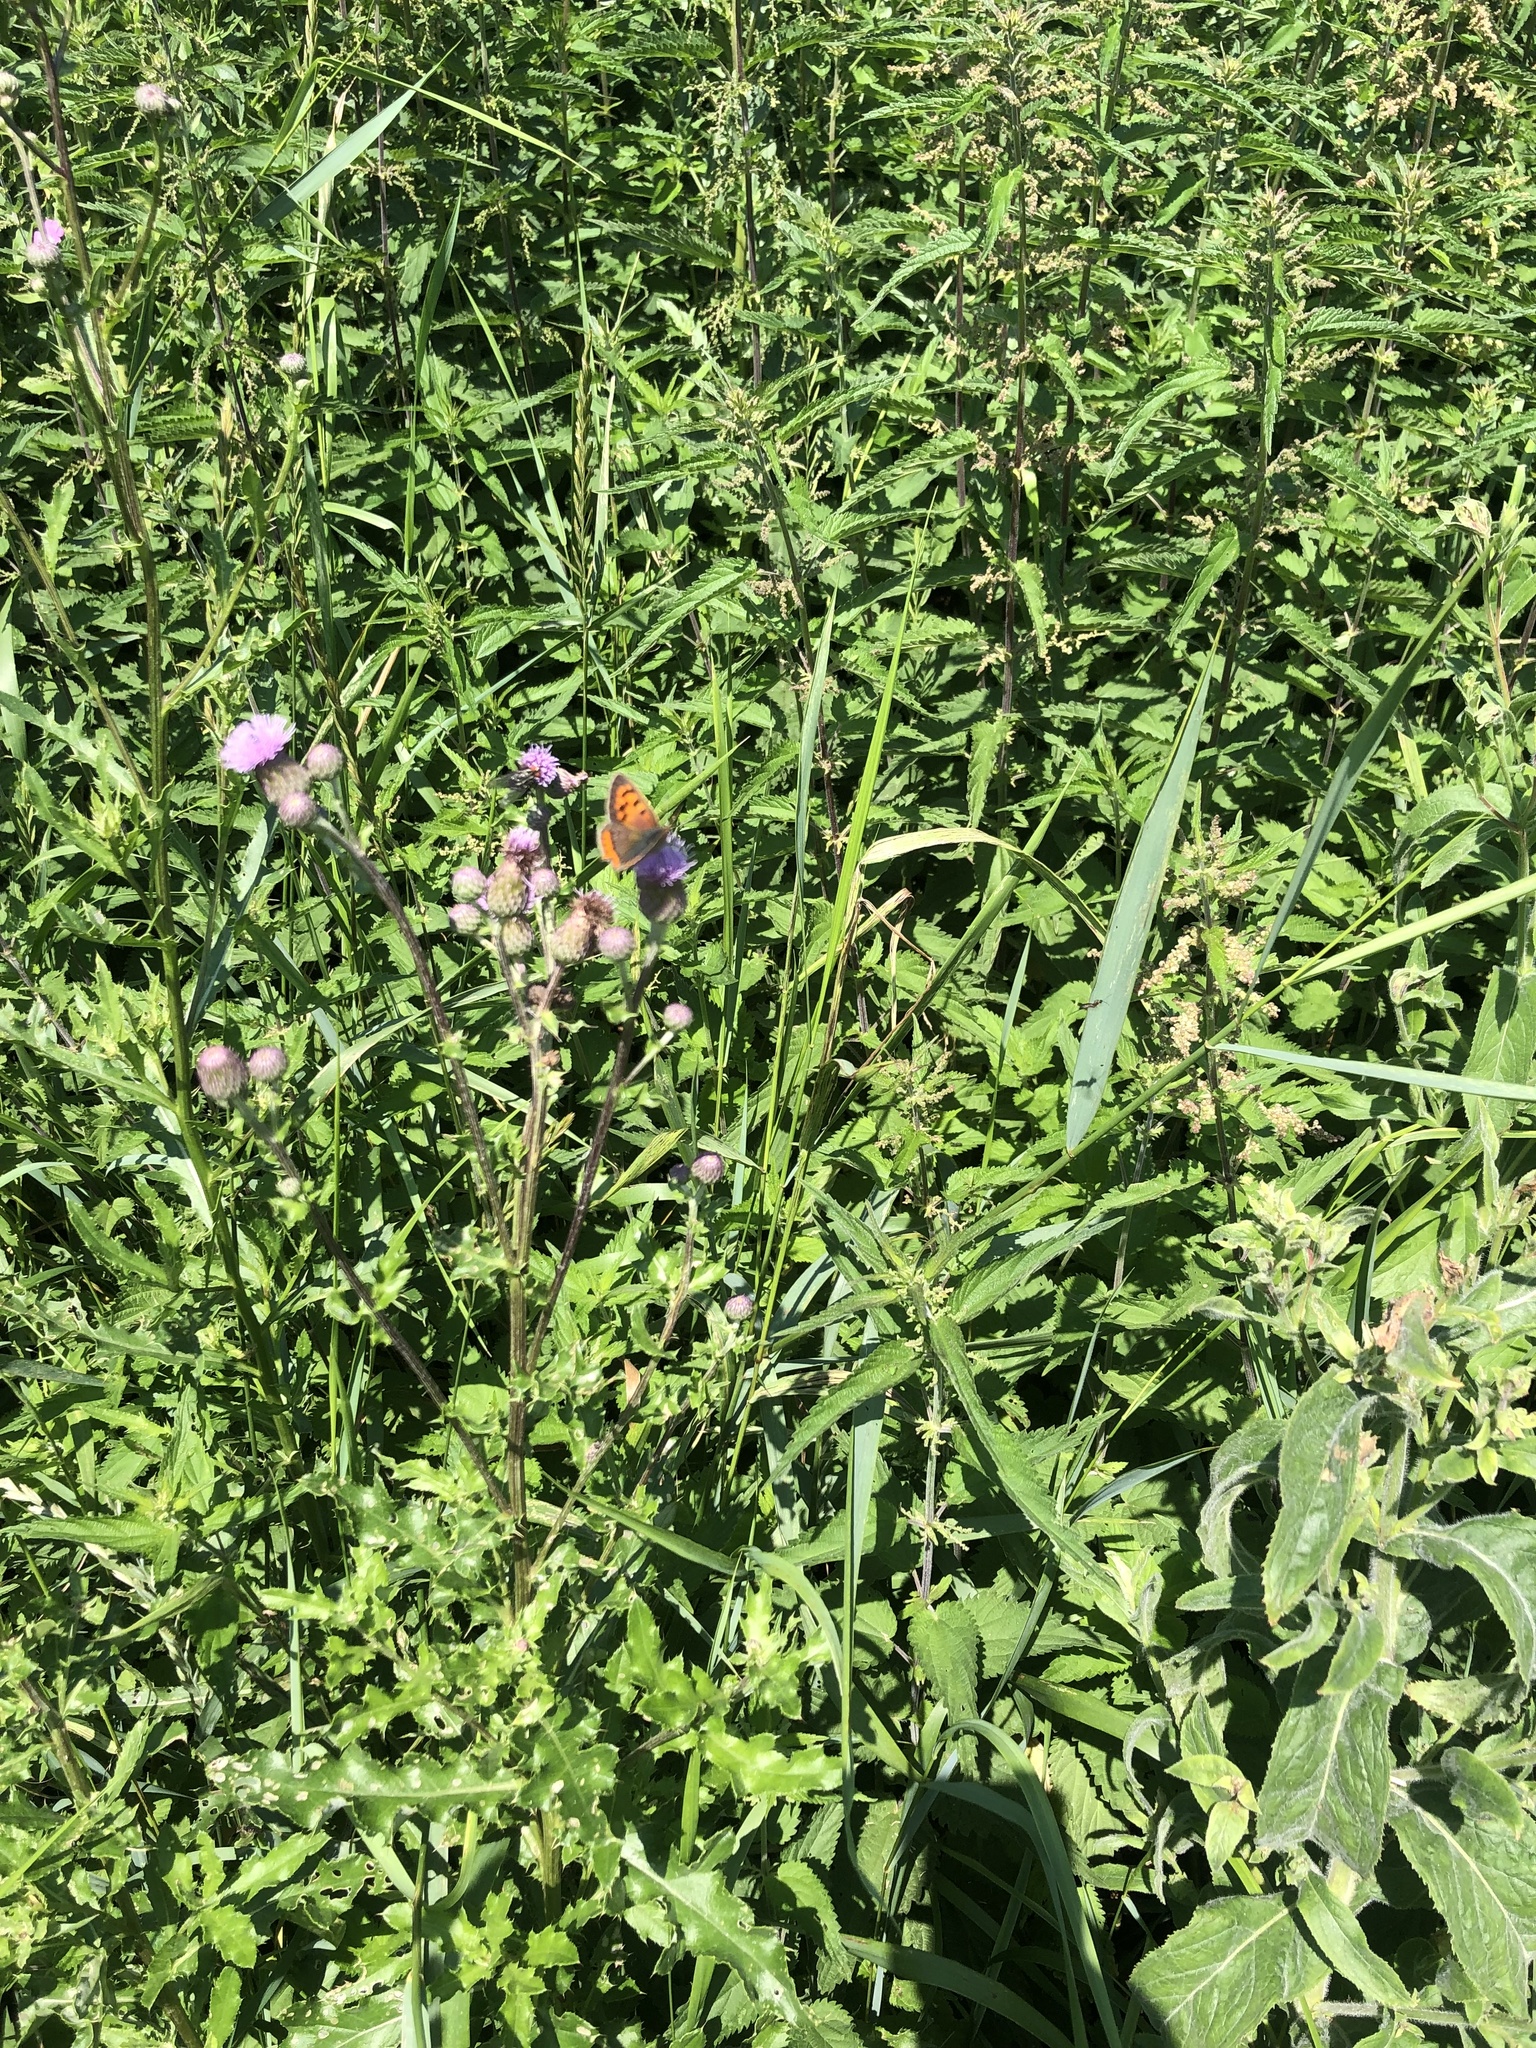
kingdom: Animalia
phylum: Arthropoda
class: Insecta
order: Lepidoptera
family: Lycaenidae
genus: Lycaena
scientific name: Lycaena phlaeas
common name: Small copper
